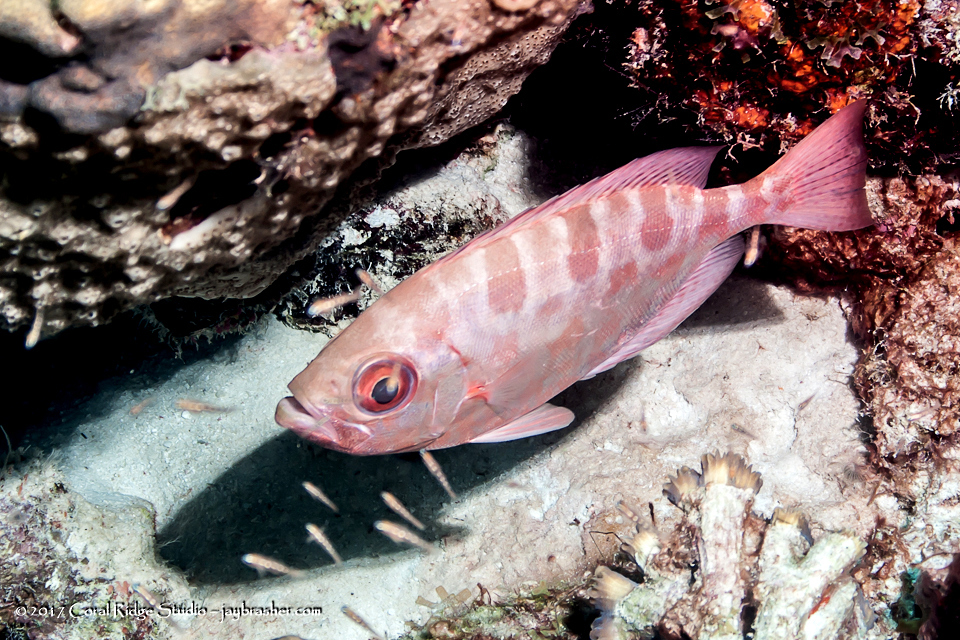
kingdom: Animalia
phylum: Chordata
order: Perciformes
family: Priacanthidae
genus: Heteropriacanthus
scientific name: Heteropriacanthus cruentatus
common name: Glasseye
